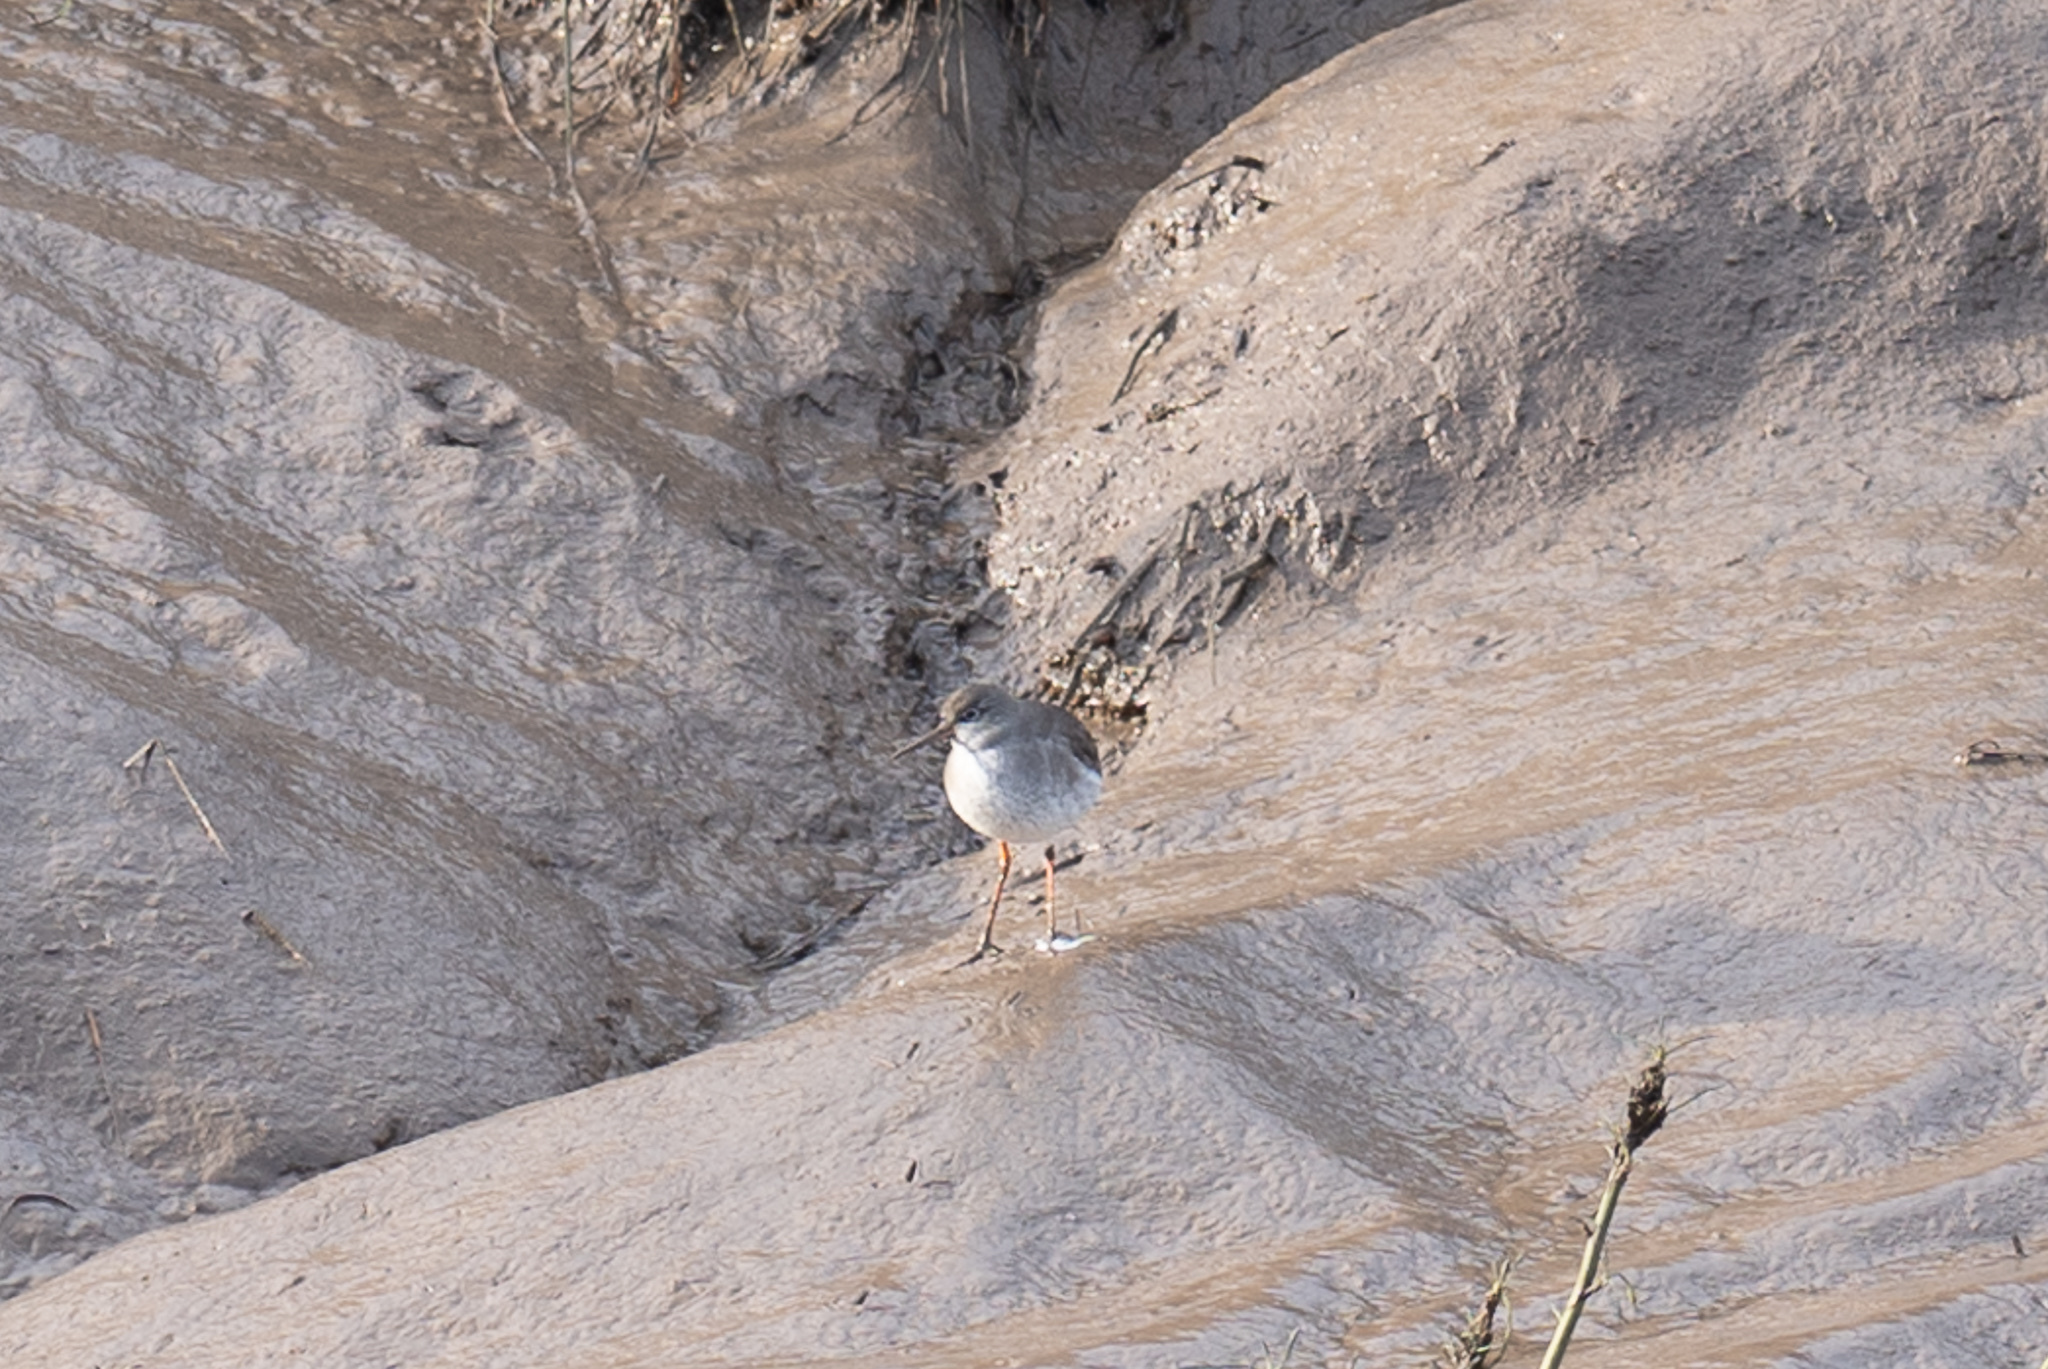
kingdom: Animalia
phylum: Chordata
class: Aves
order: Charadriiformes
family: Scolopacidae
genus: Tringa
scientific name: Tringa totanus
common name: Common redshank
